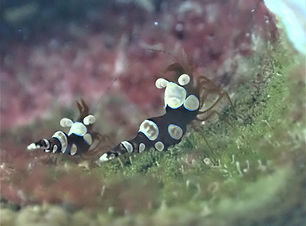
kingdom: Animalia
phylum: Arthropoda
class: Malacostraca
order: Decapoda
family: Thoridae
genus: Thor
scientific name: Thor dicaprio
